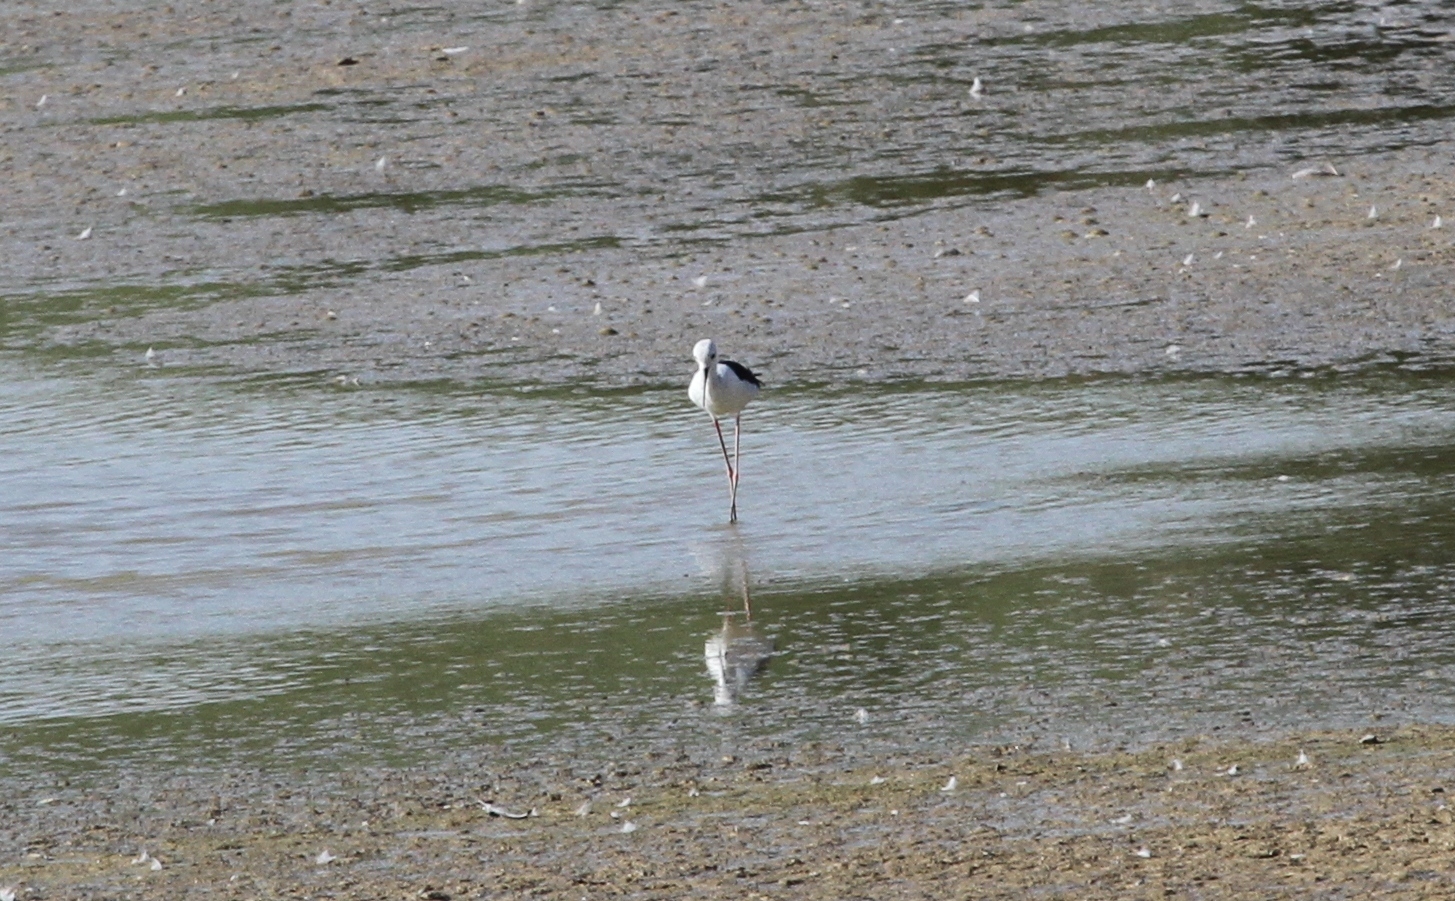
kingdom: Animalia
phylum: Chordata
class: Aves
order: Charadriiformes
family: Recurvirostridae
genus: Himantopus
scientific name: Himantopus himantopus
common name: Black-winged stilt
